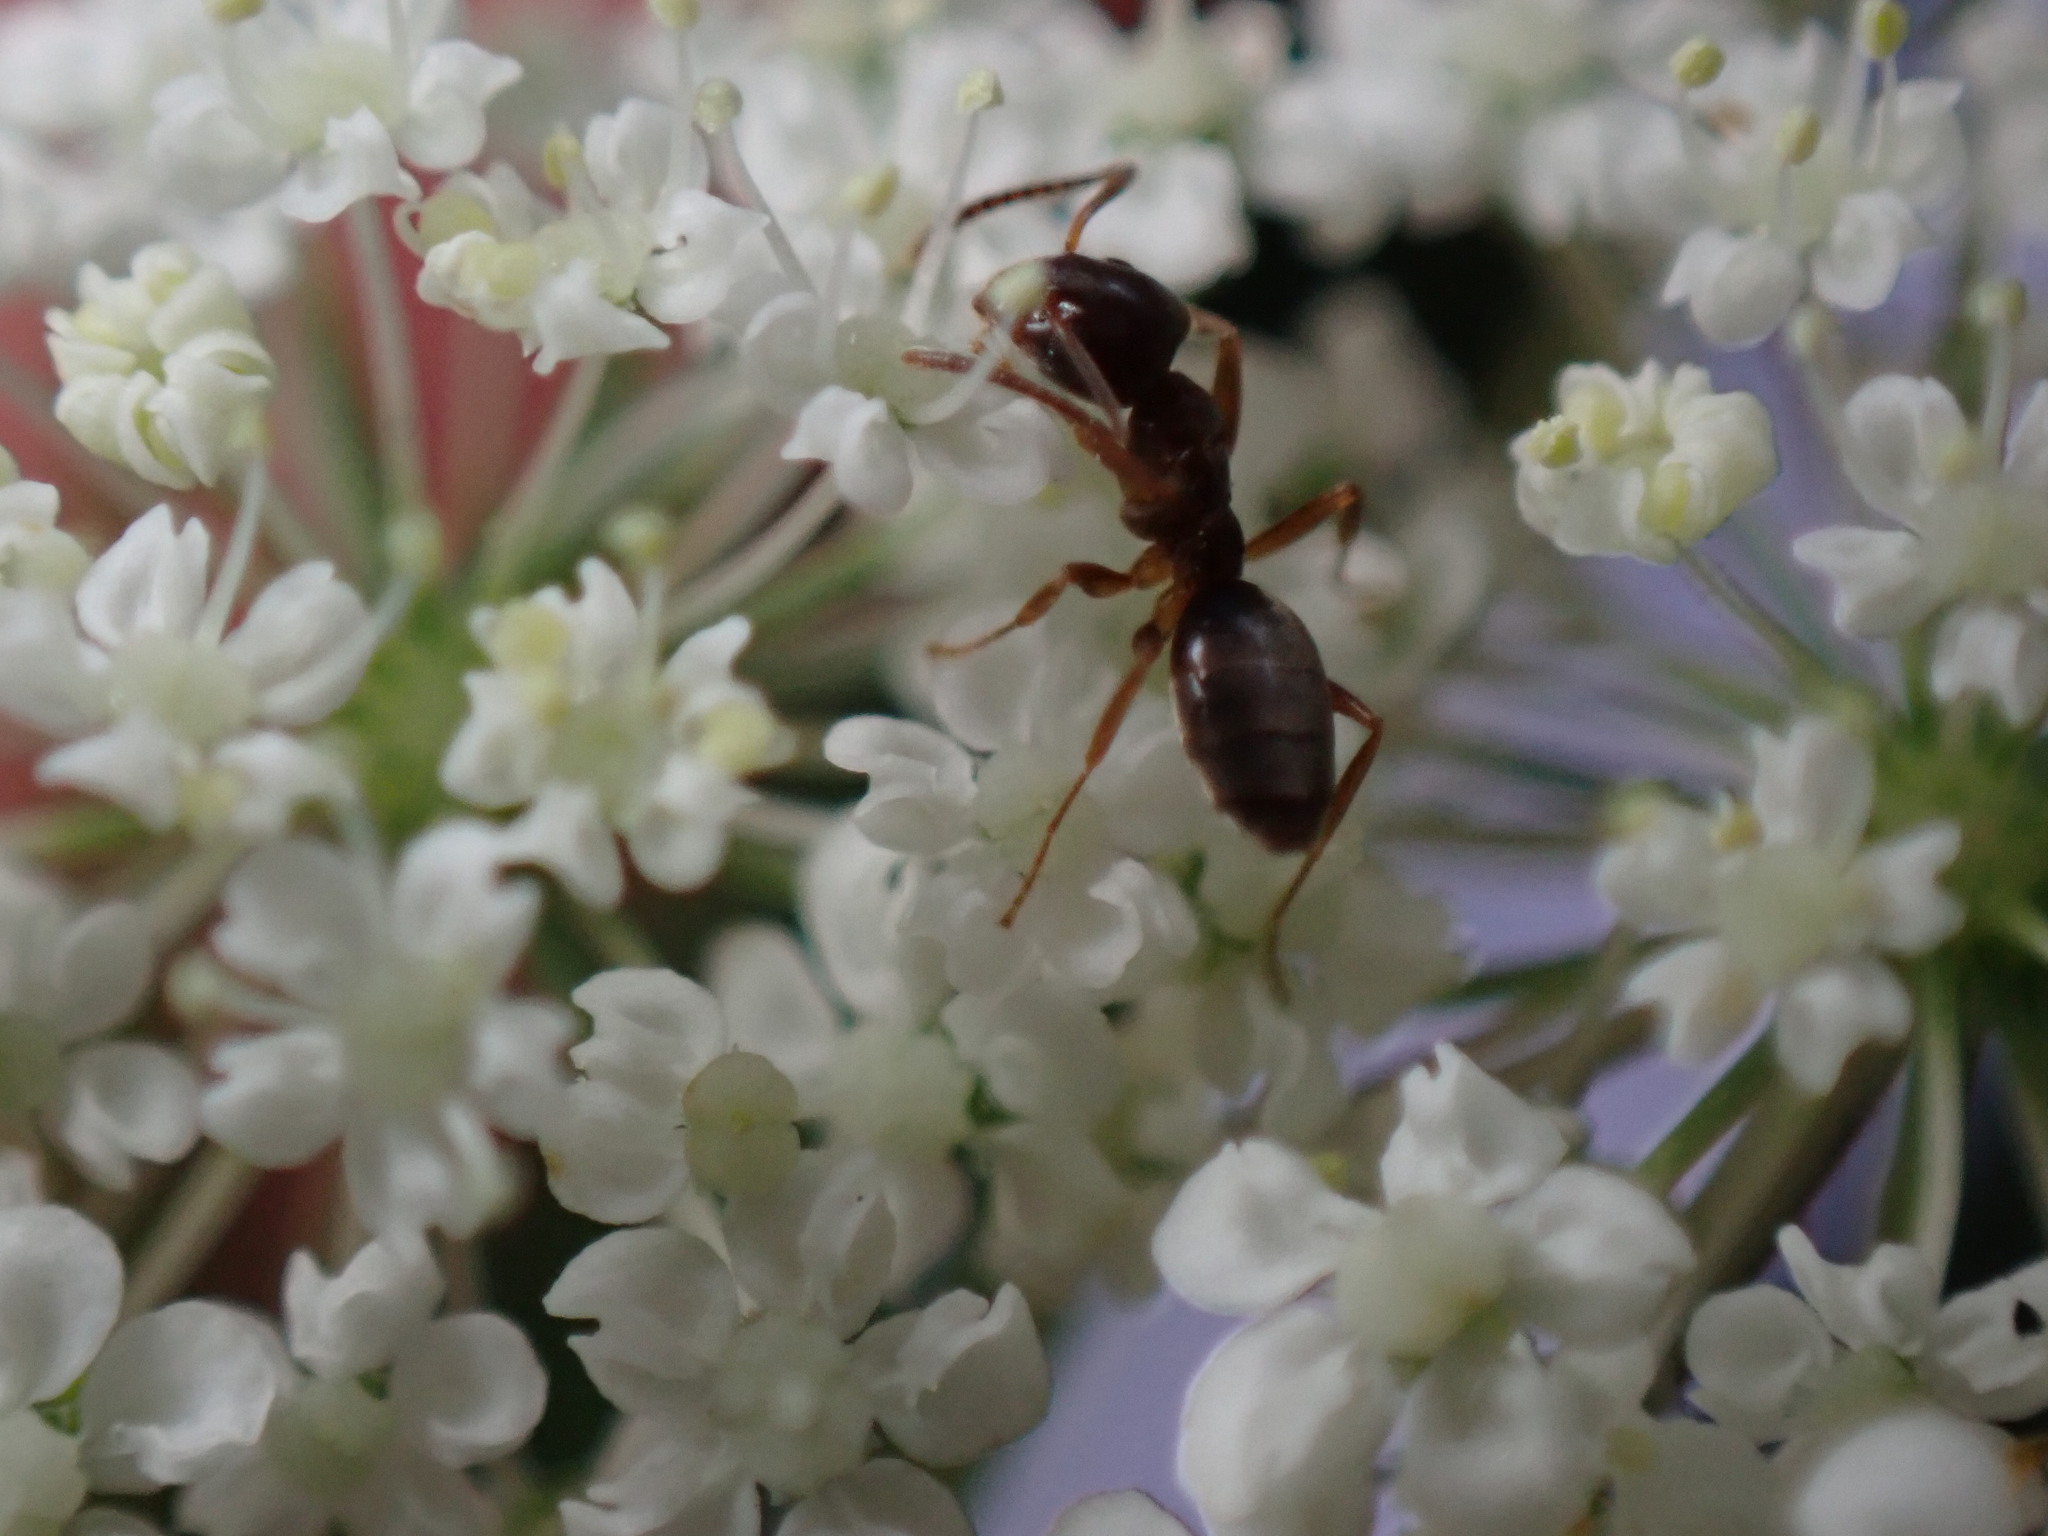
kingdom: Animalia
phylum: Arthropoda
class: Insecta
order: Hymenoptera
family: Formicidae
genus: Tapinoma
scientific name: Tapinoma sessile
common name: Odorous house ant
